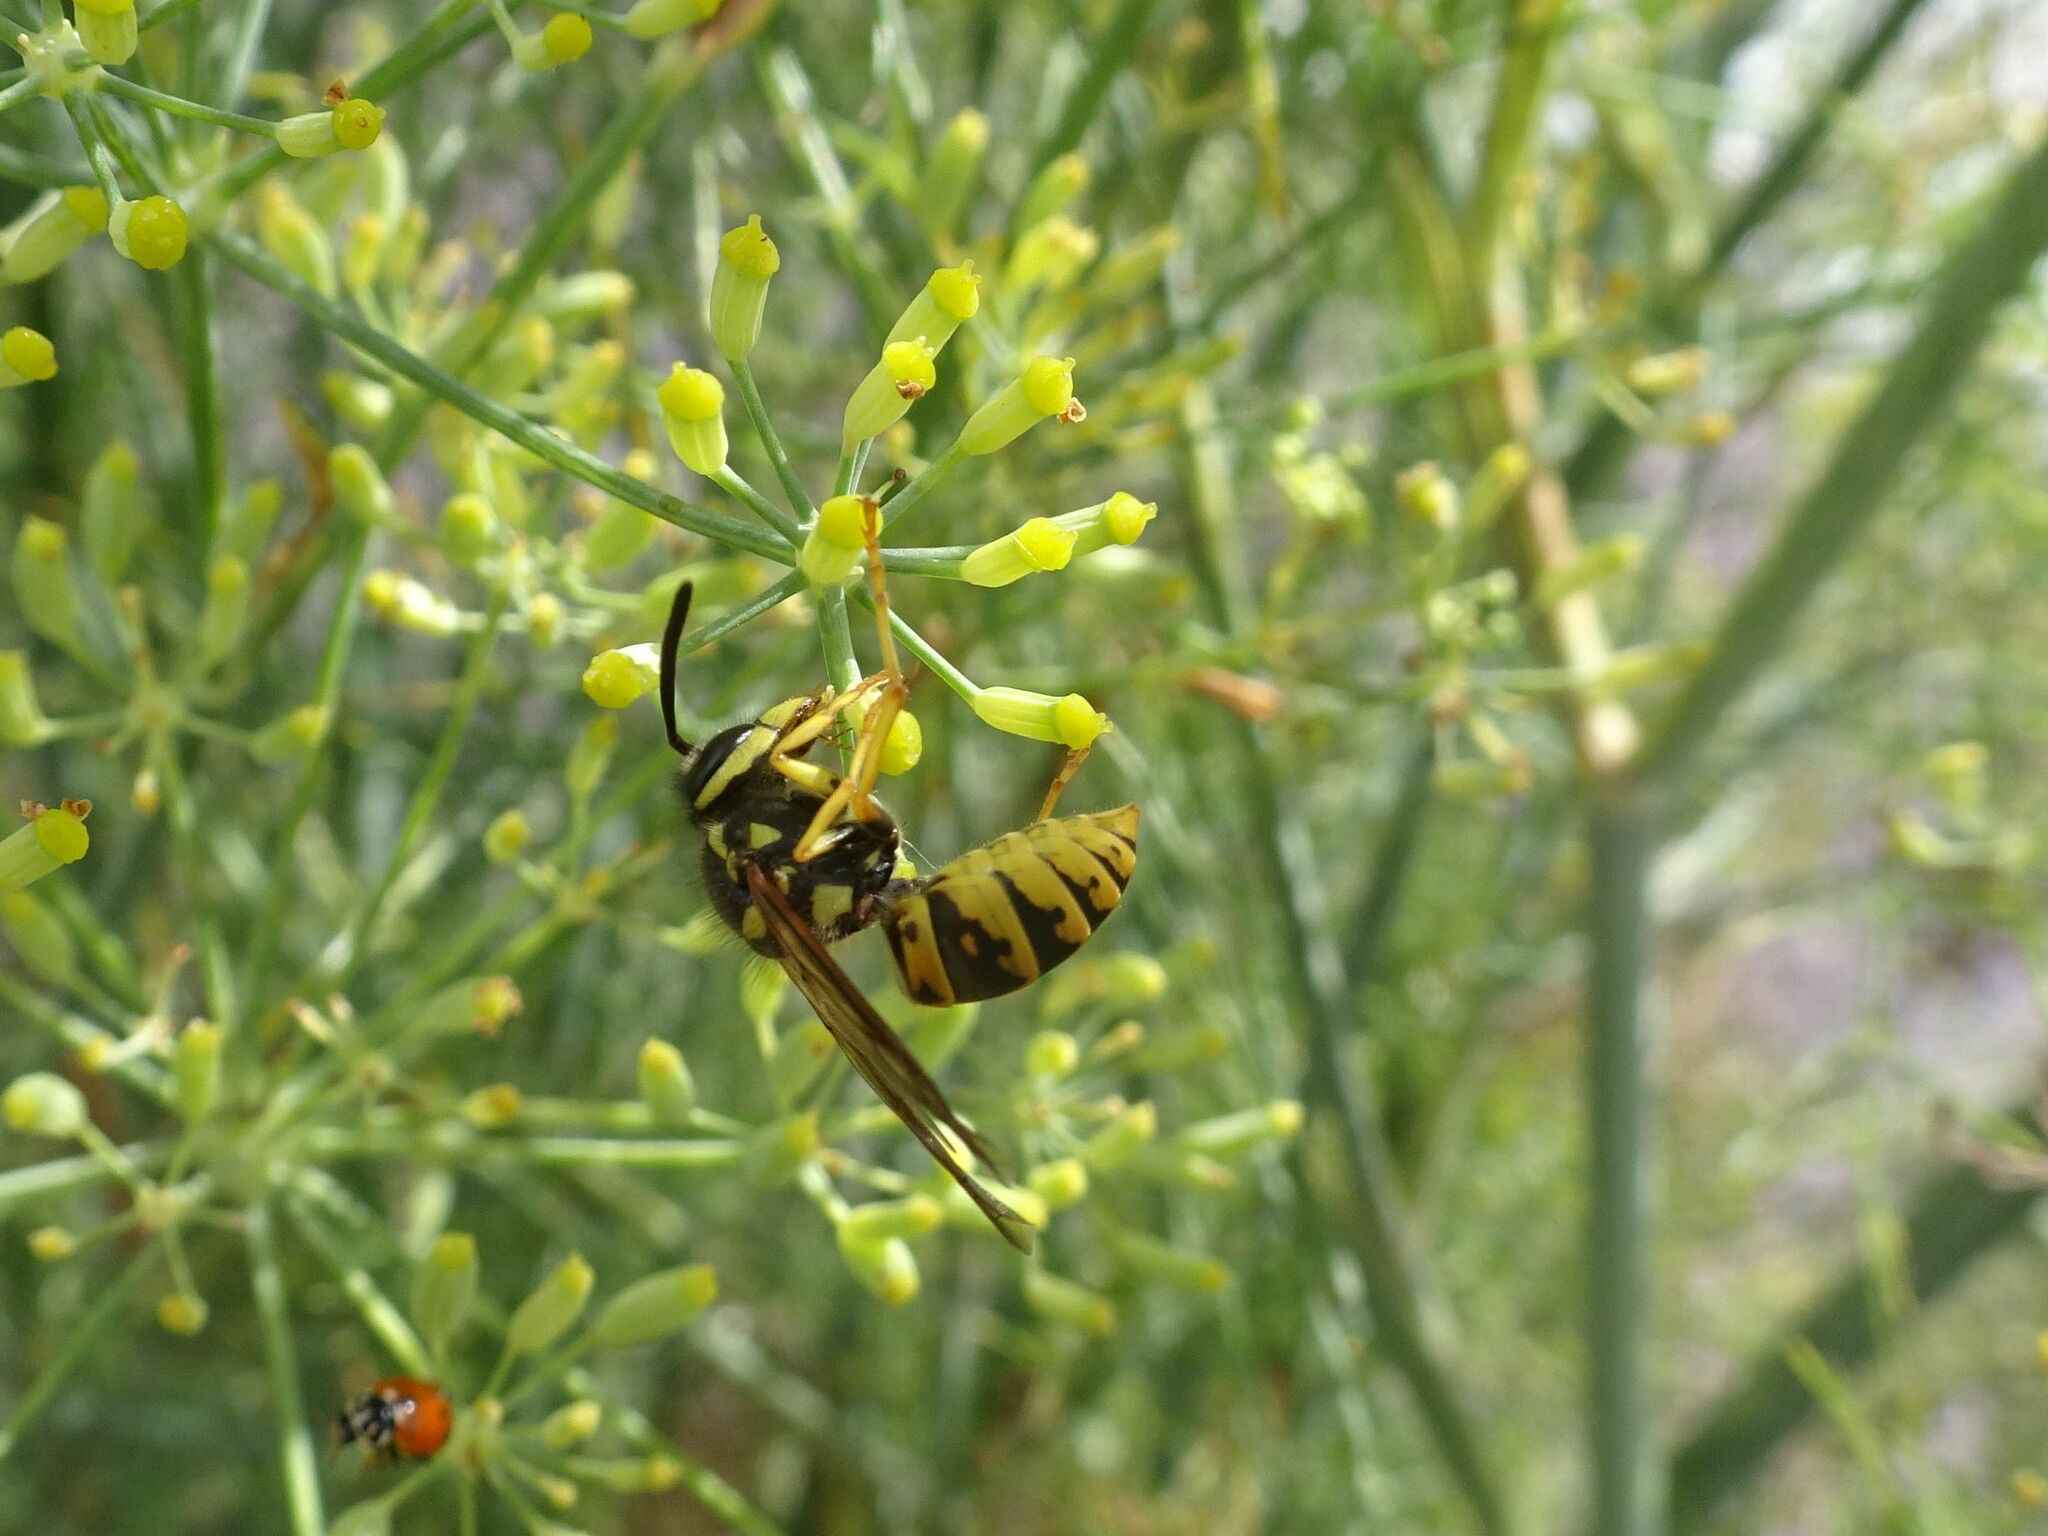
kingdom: Animalia
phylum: Arthropoda
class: Insecta
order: Hymenoptera
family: Vespidae
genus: Vespula
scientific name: Vespula germanica
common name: German wasp
